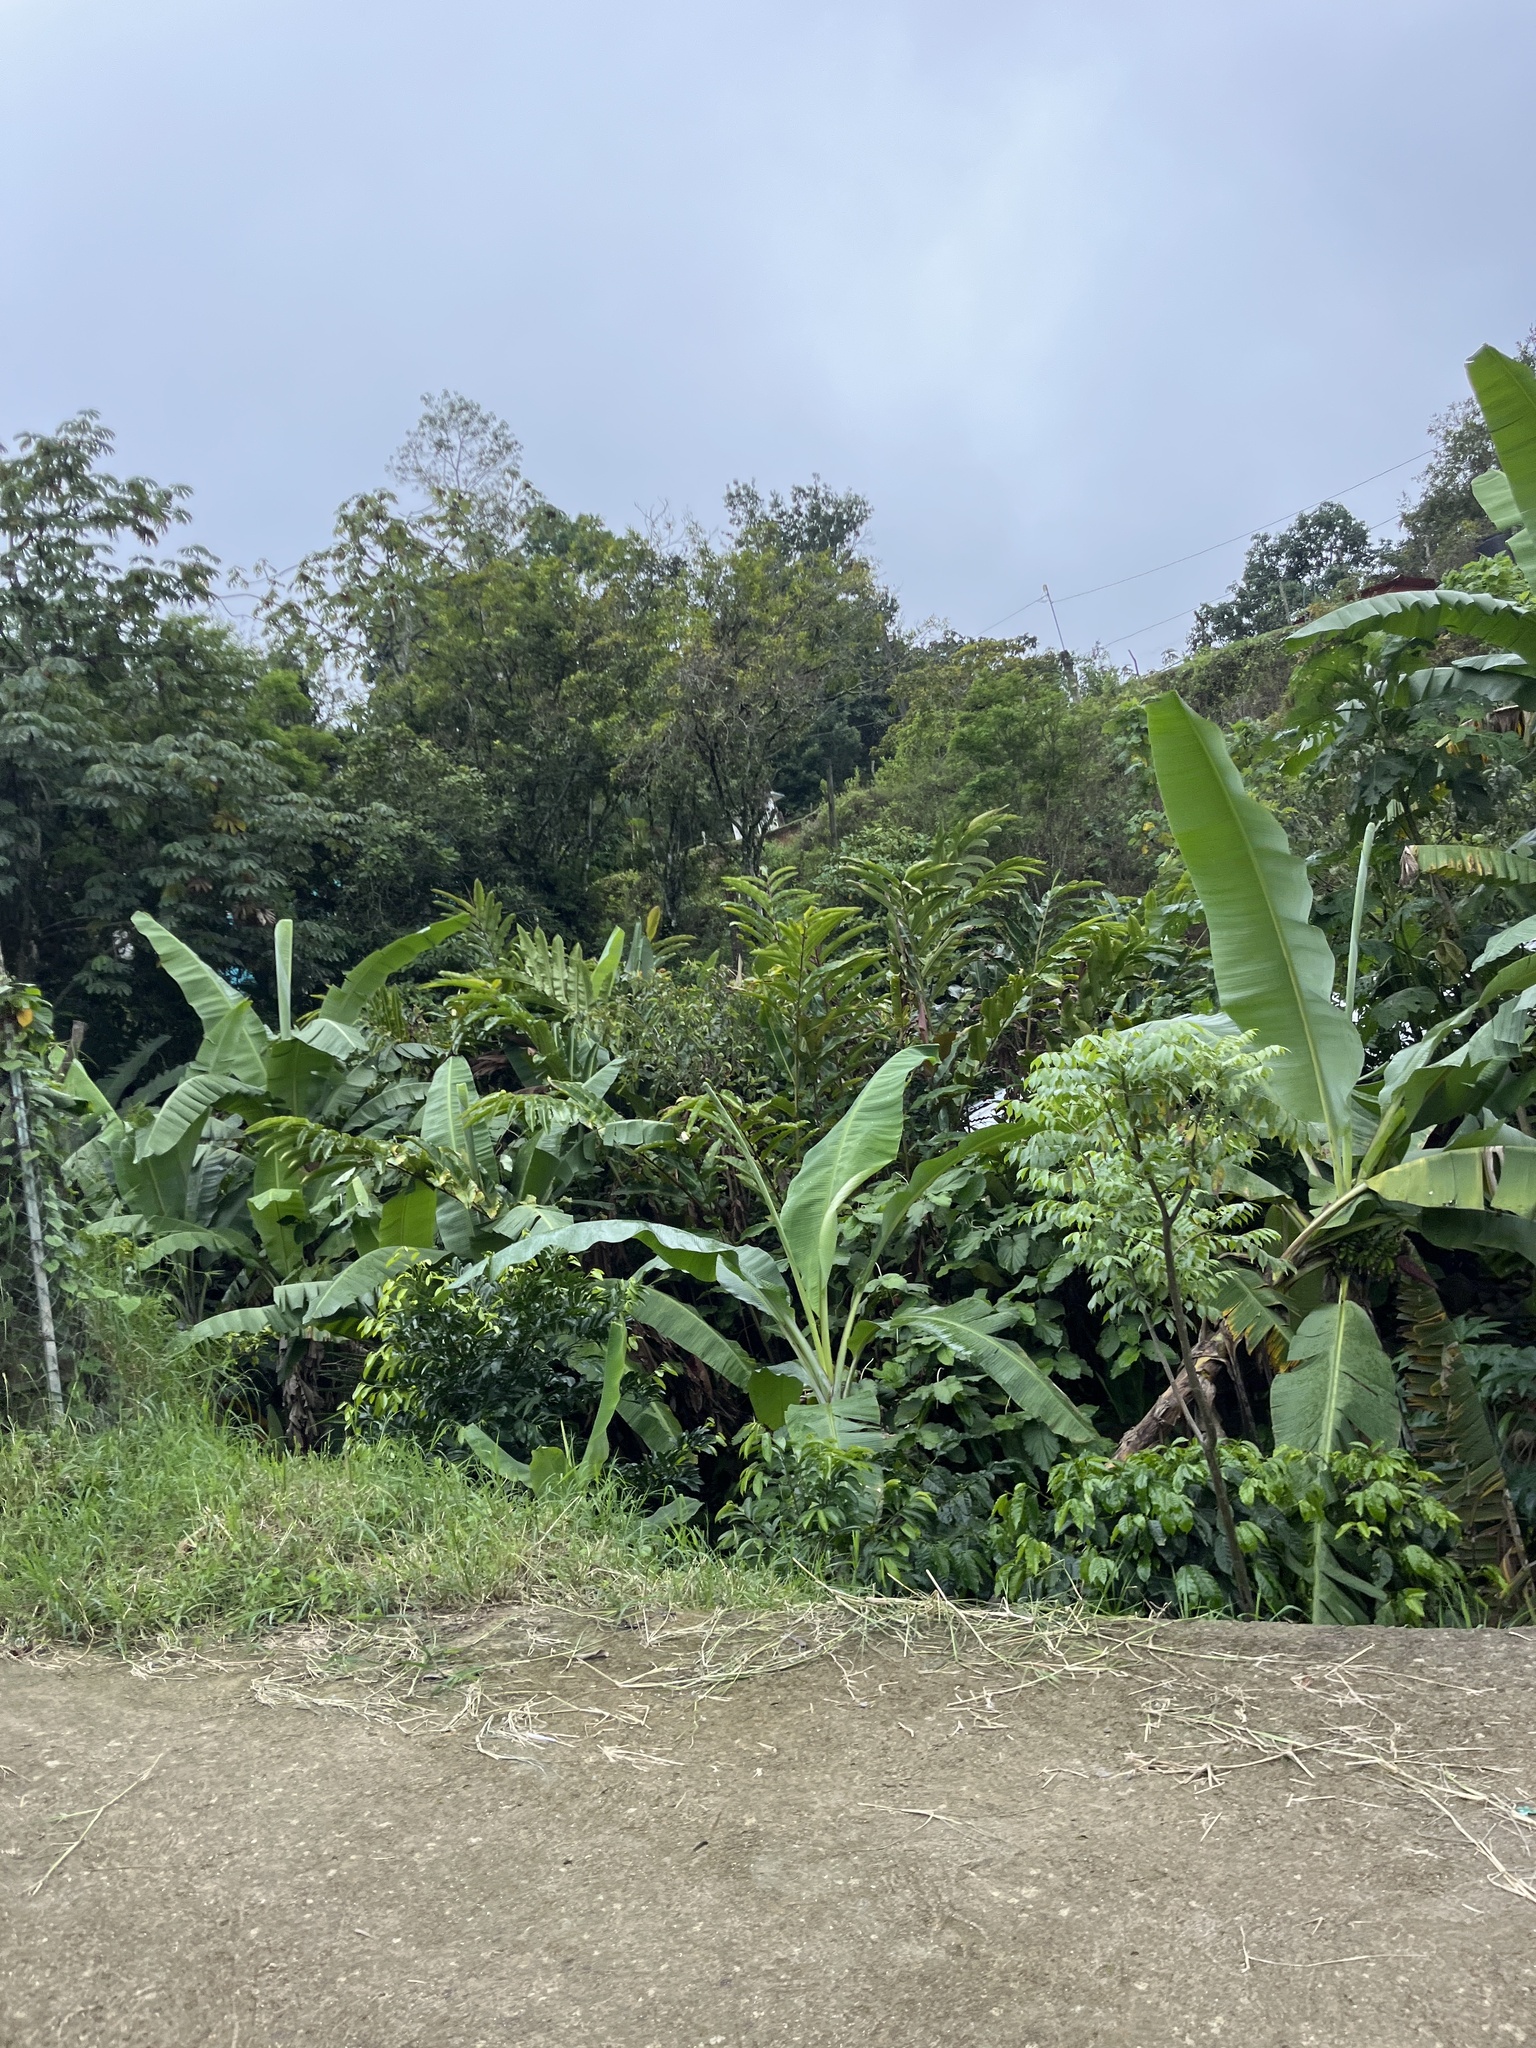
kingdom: Plantae
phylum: Tracheophyta
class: Liliopsida
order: Zingiberales
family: Musaceae
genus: Musa
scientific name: Musa acuminata
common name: Edible banana
